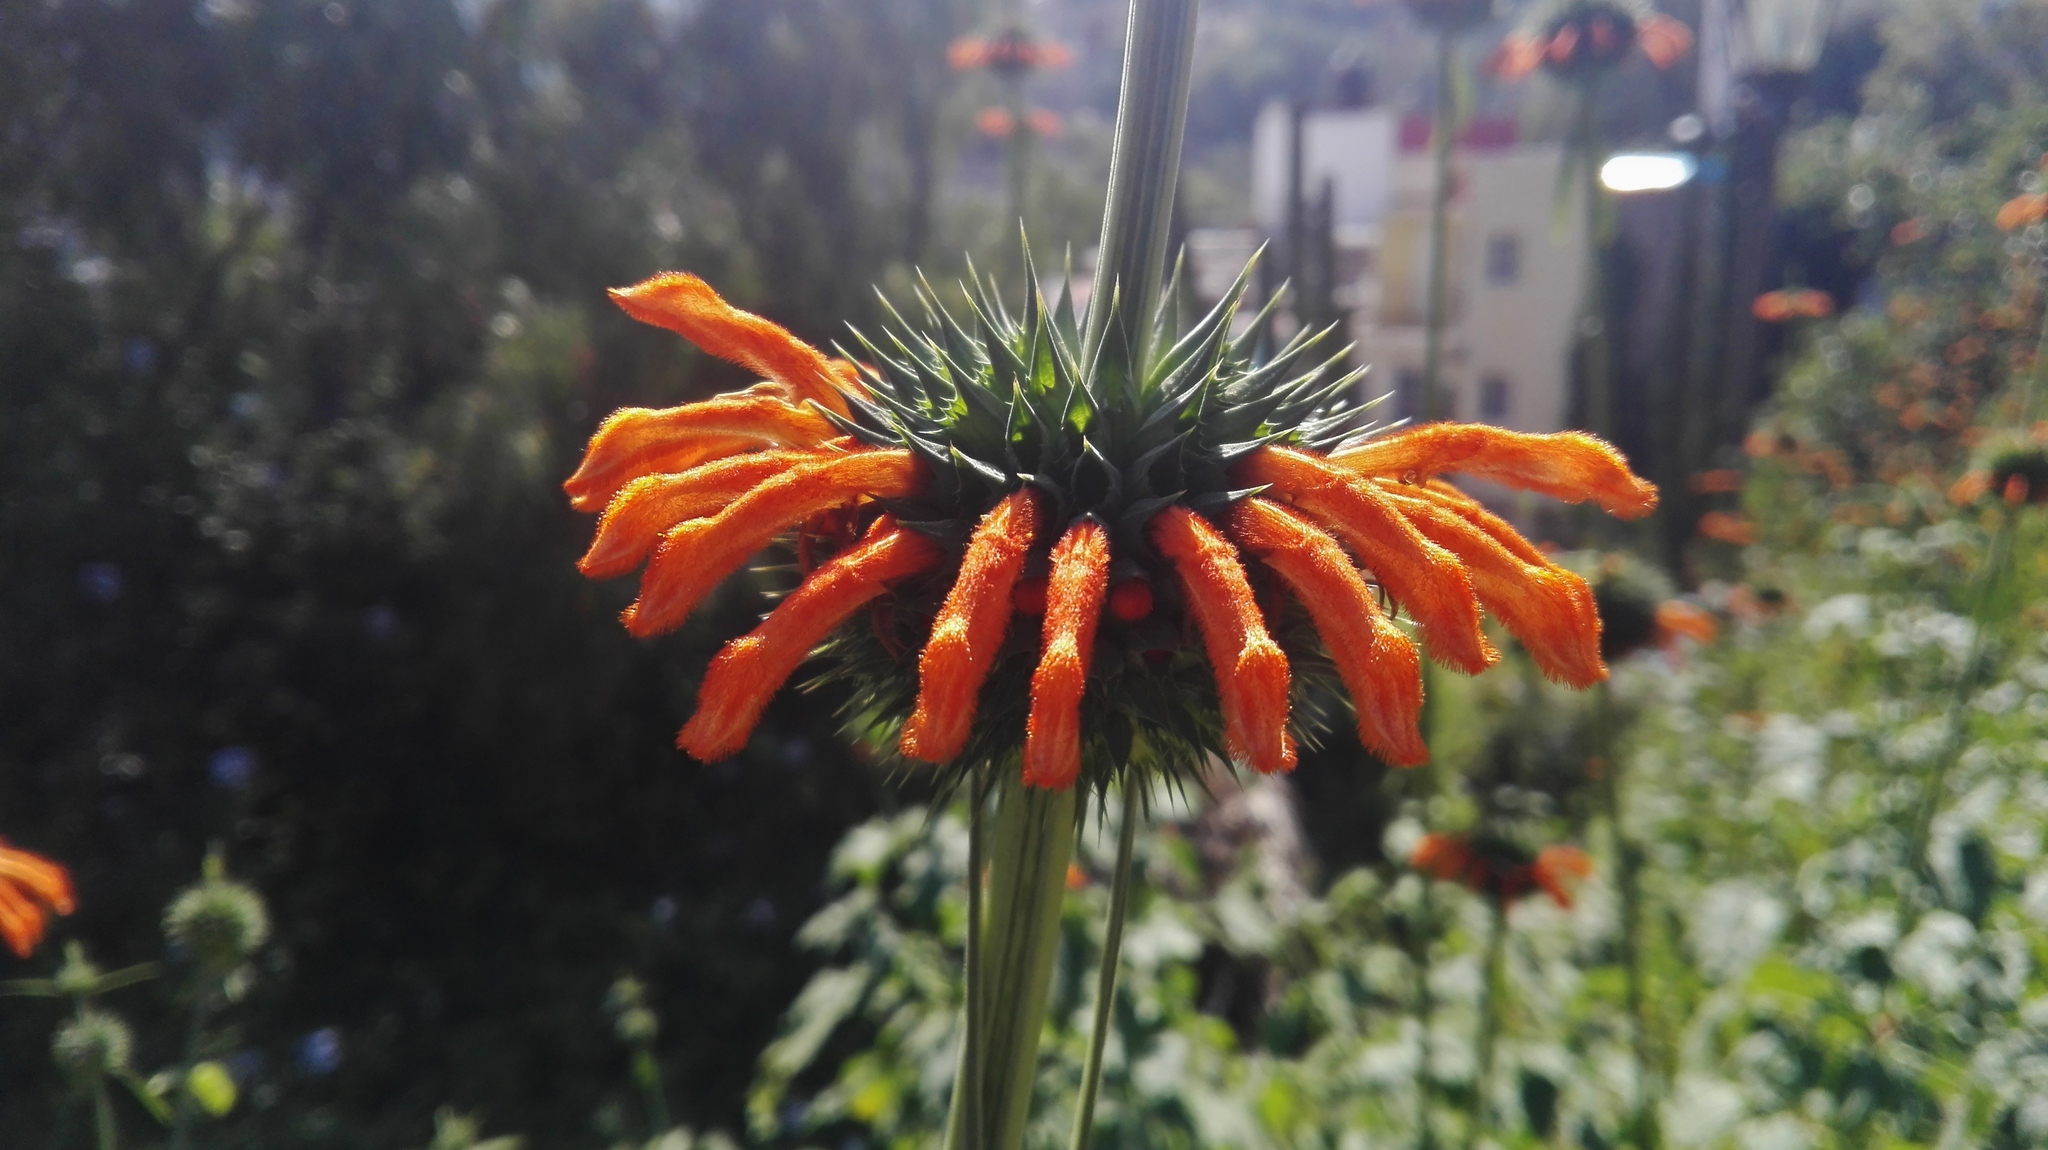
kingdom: Plantae
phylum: Tracheophyta
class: Magnoliopsida
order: Lamiales
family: Lamiaceae
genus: Leonotis
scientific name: Leonotis nepetifolia
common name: Christmas candlestick
